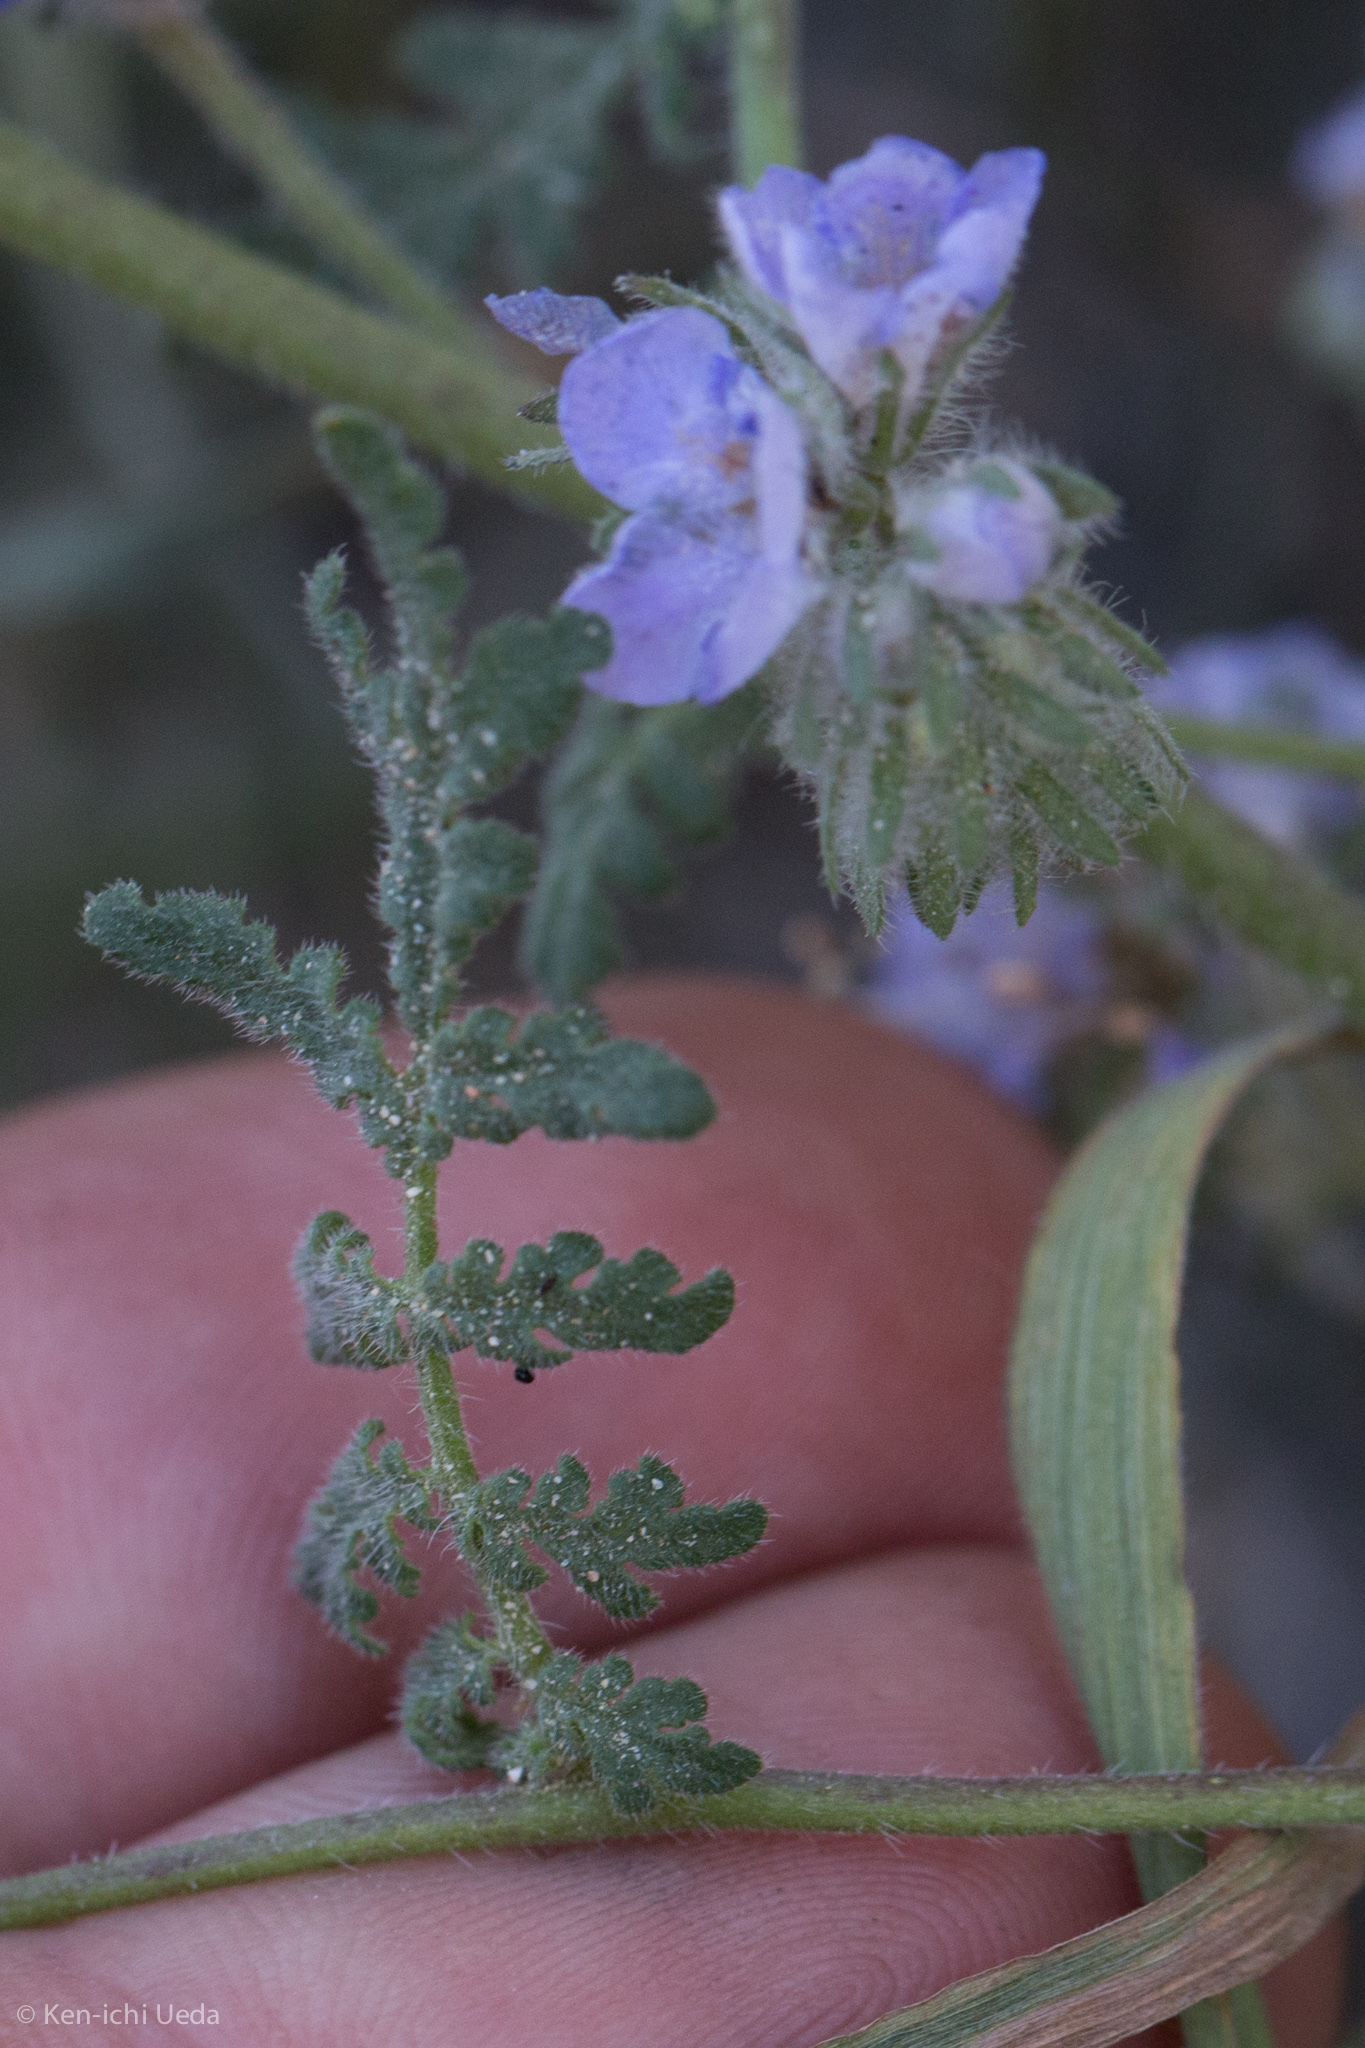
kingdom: Plantae
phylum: Tracheophyta
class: Magnoliopsida
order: Boraginales
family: Hydrophyllaceae
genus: Phacelia
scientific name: Phacelia distans
